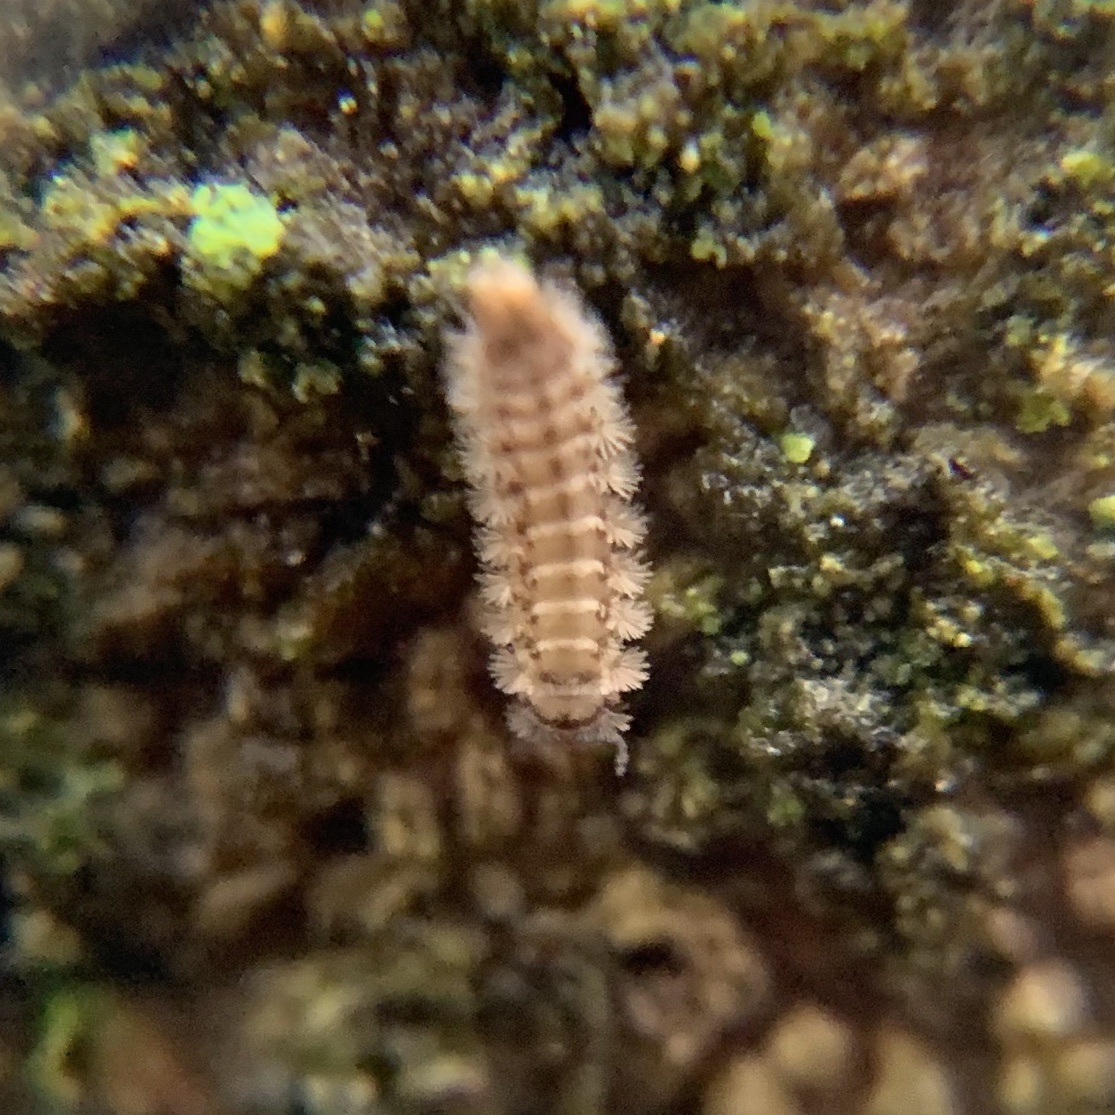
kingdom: Animalia
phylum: Arthropoda
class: Diplopoda
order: Polyxenida
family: Polyxenidae
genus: Polyxenus
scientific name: Polyxenus lagurus
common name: Bristly millipede
